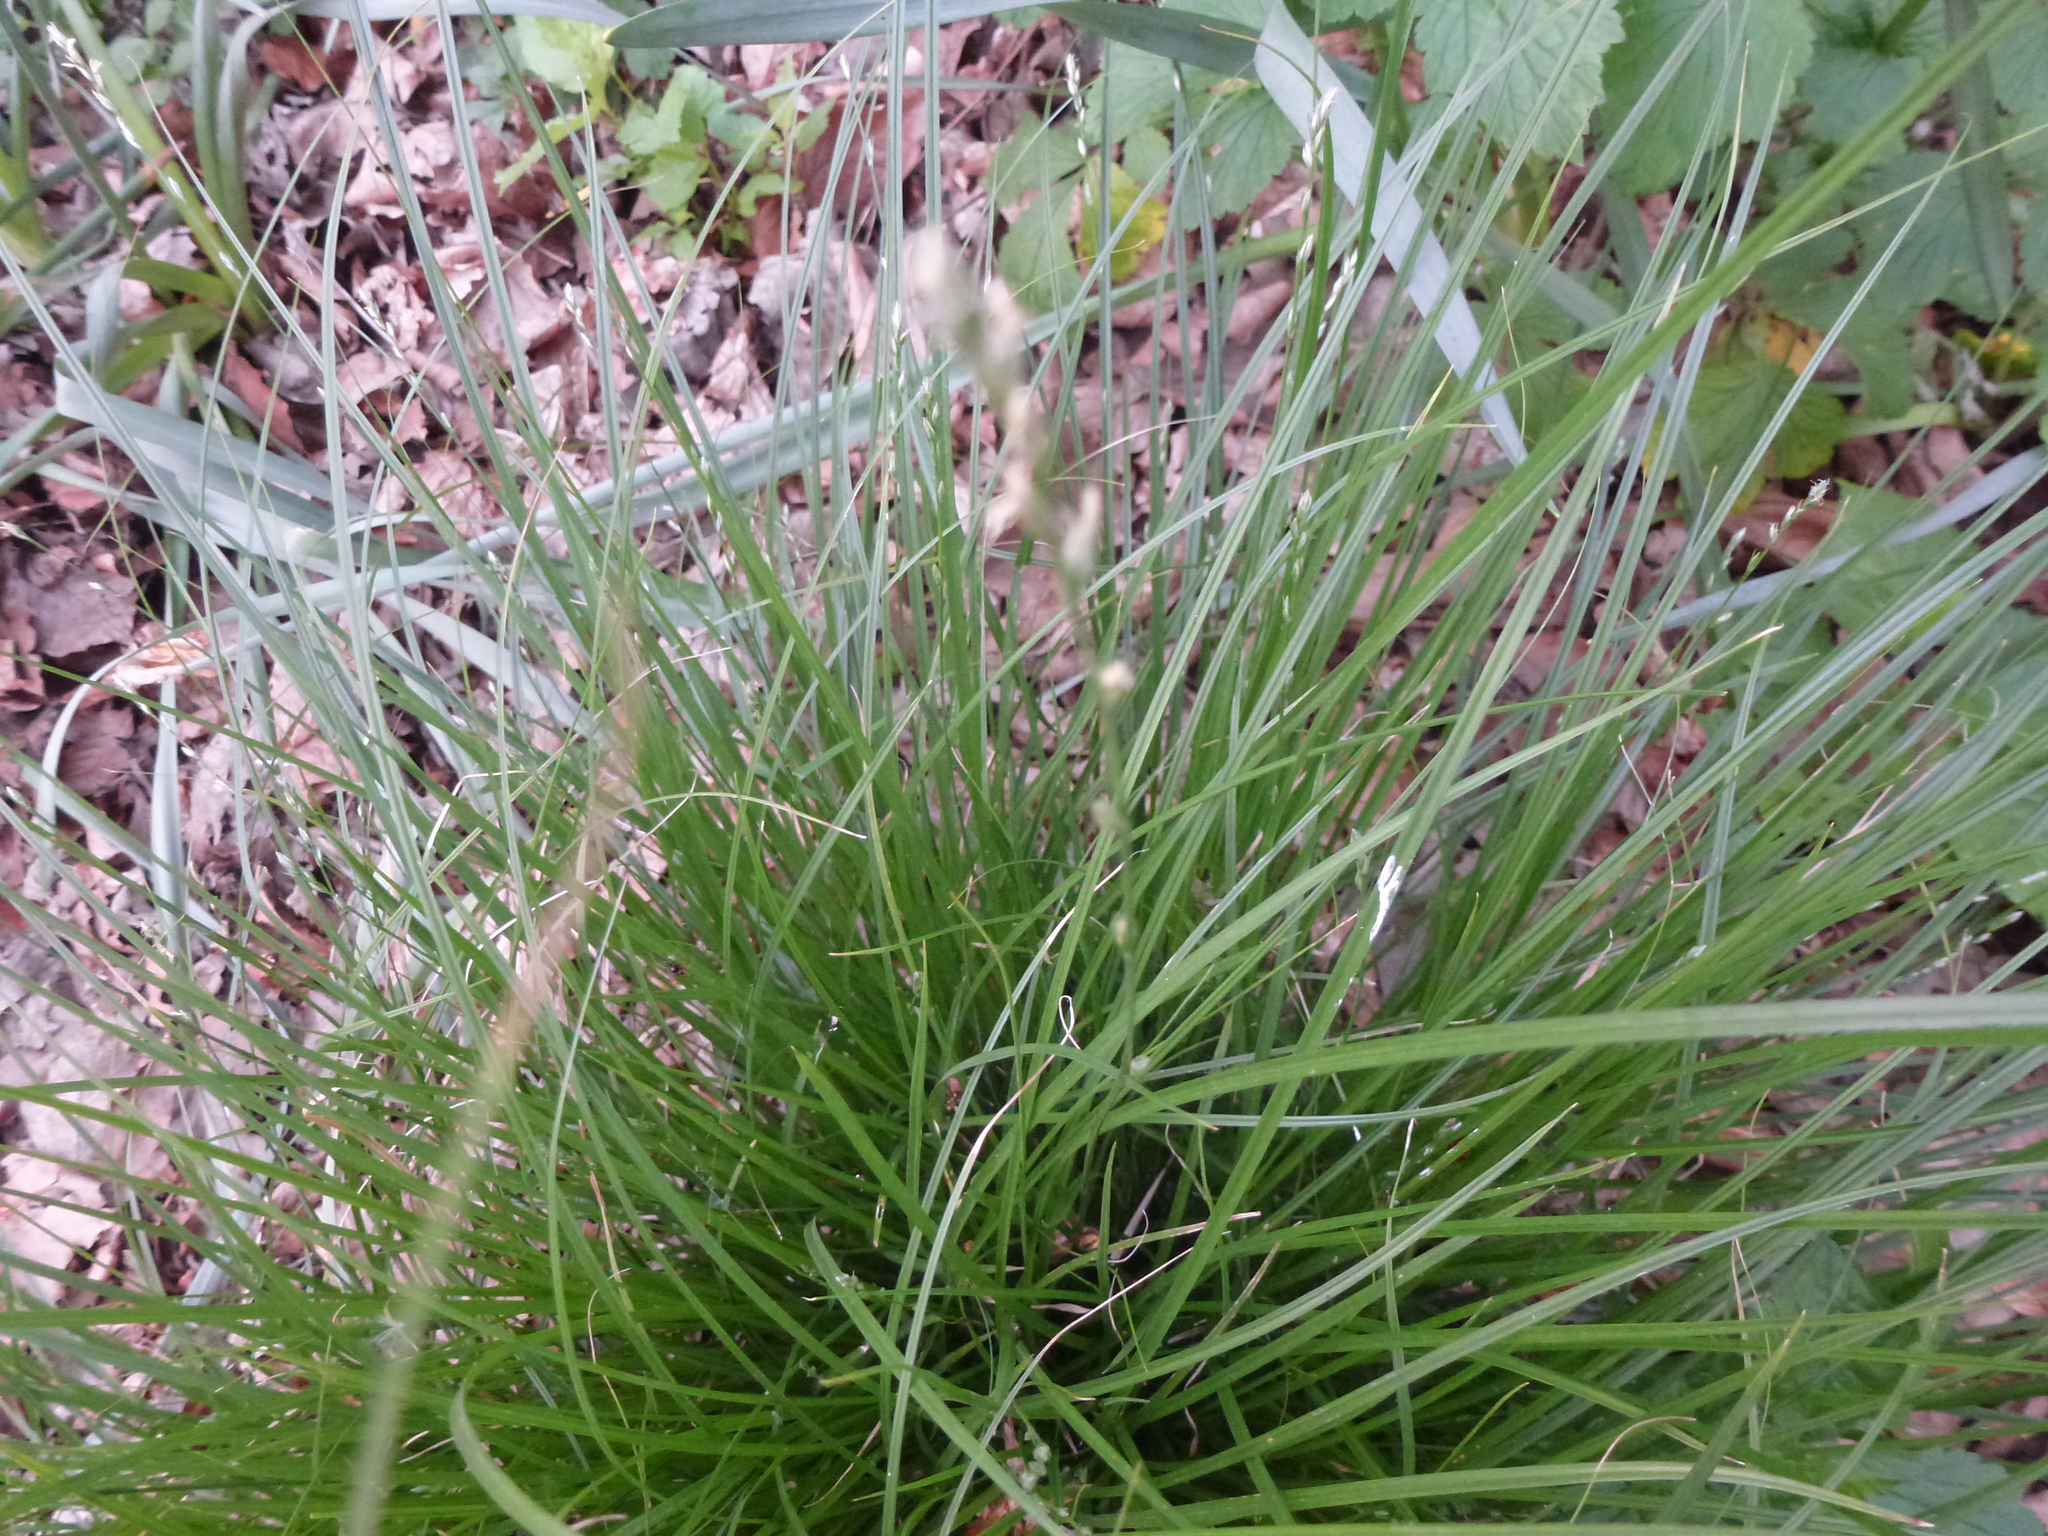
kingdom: Plantae
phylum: Tracheophyta
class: Liliopsida
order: Poales
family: Cyperaceae
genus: Carex
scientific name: Carex remota
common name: Remote sedge
